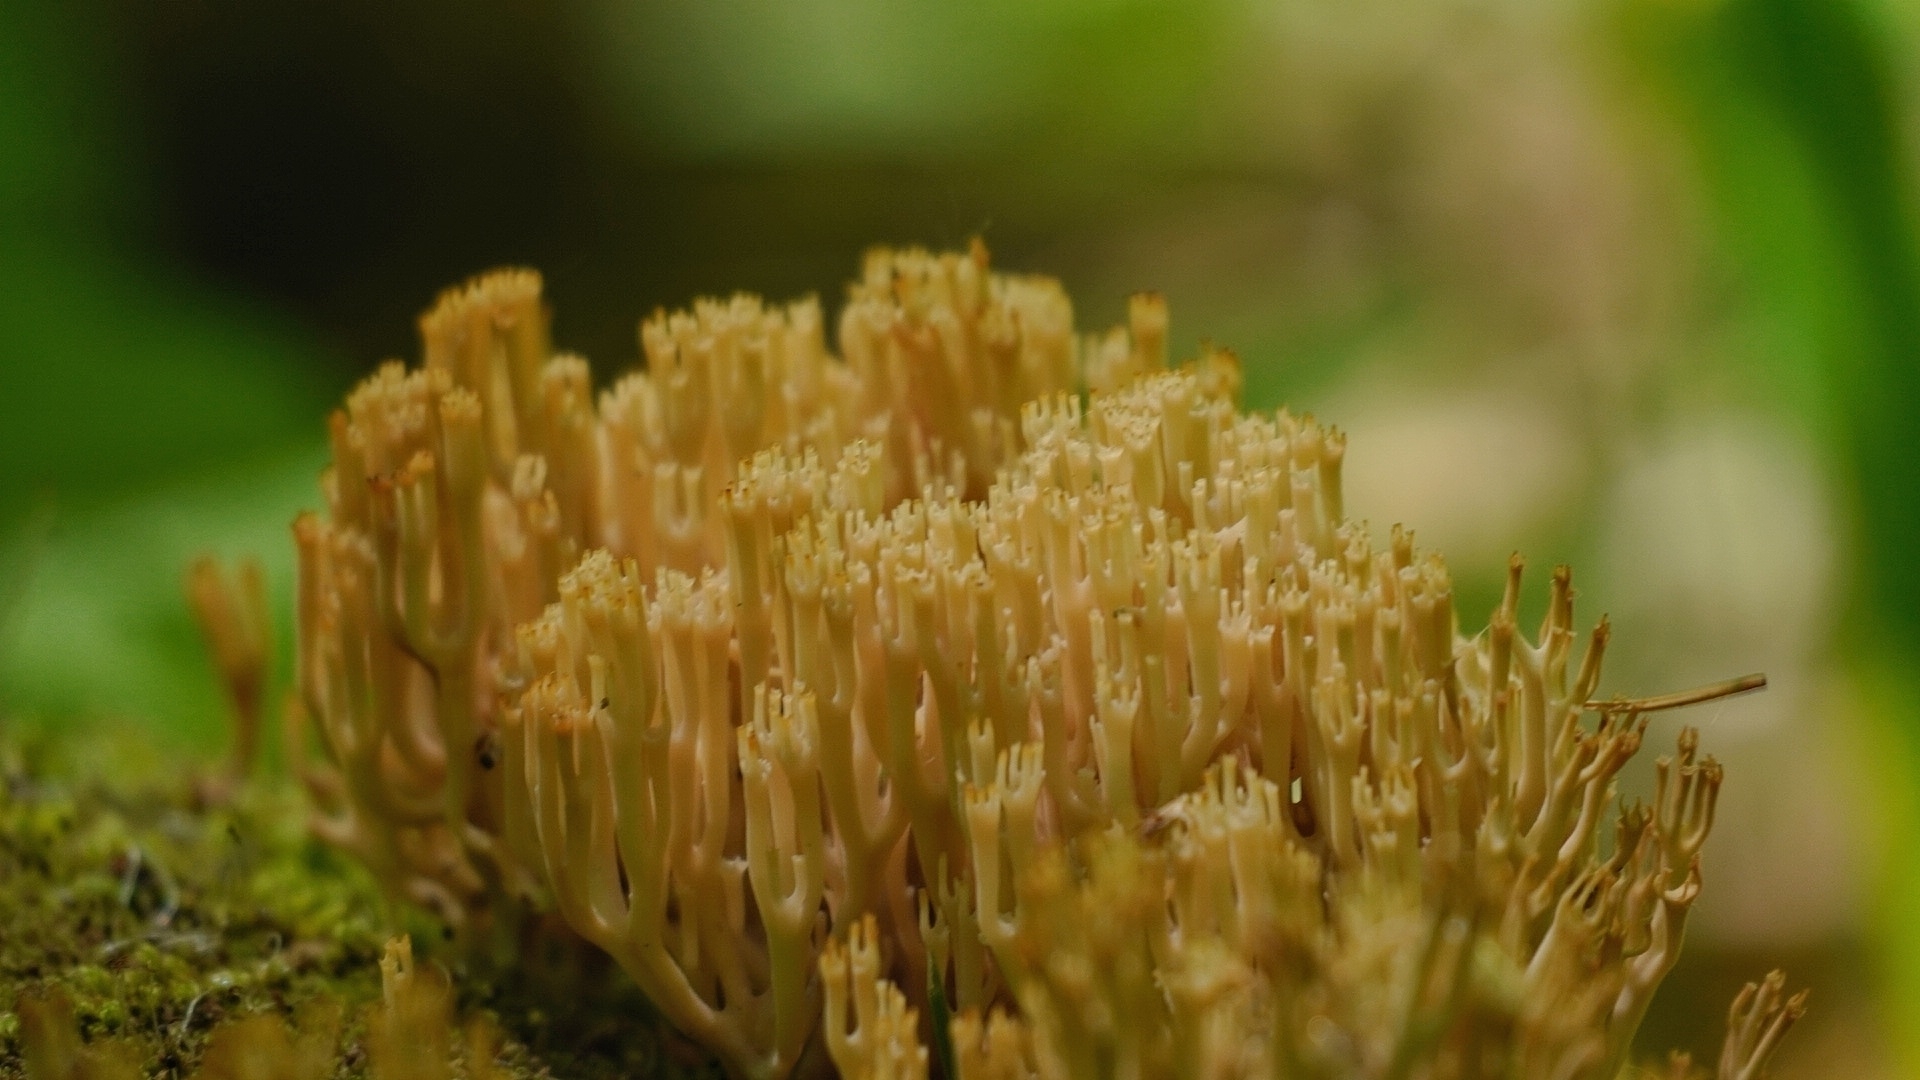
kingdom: Fungi
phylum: Basidiomycota
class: Agaricomycetes
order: Russulales
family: Auriscalpiaceae
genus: Artomyces
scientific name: Artomyces pyxidatus
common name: Crown-tipped coral fungus
